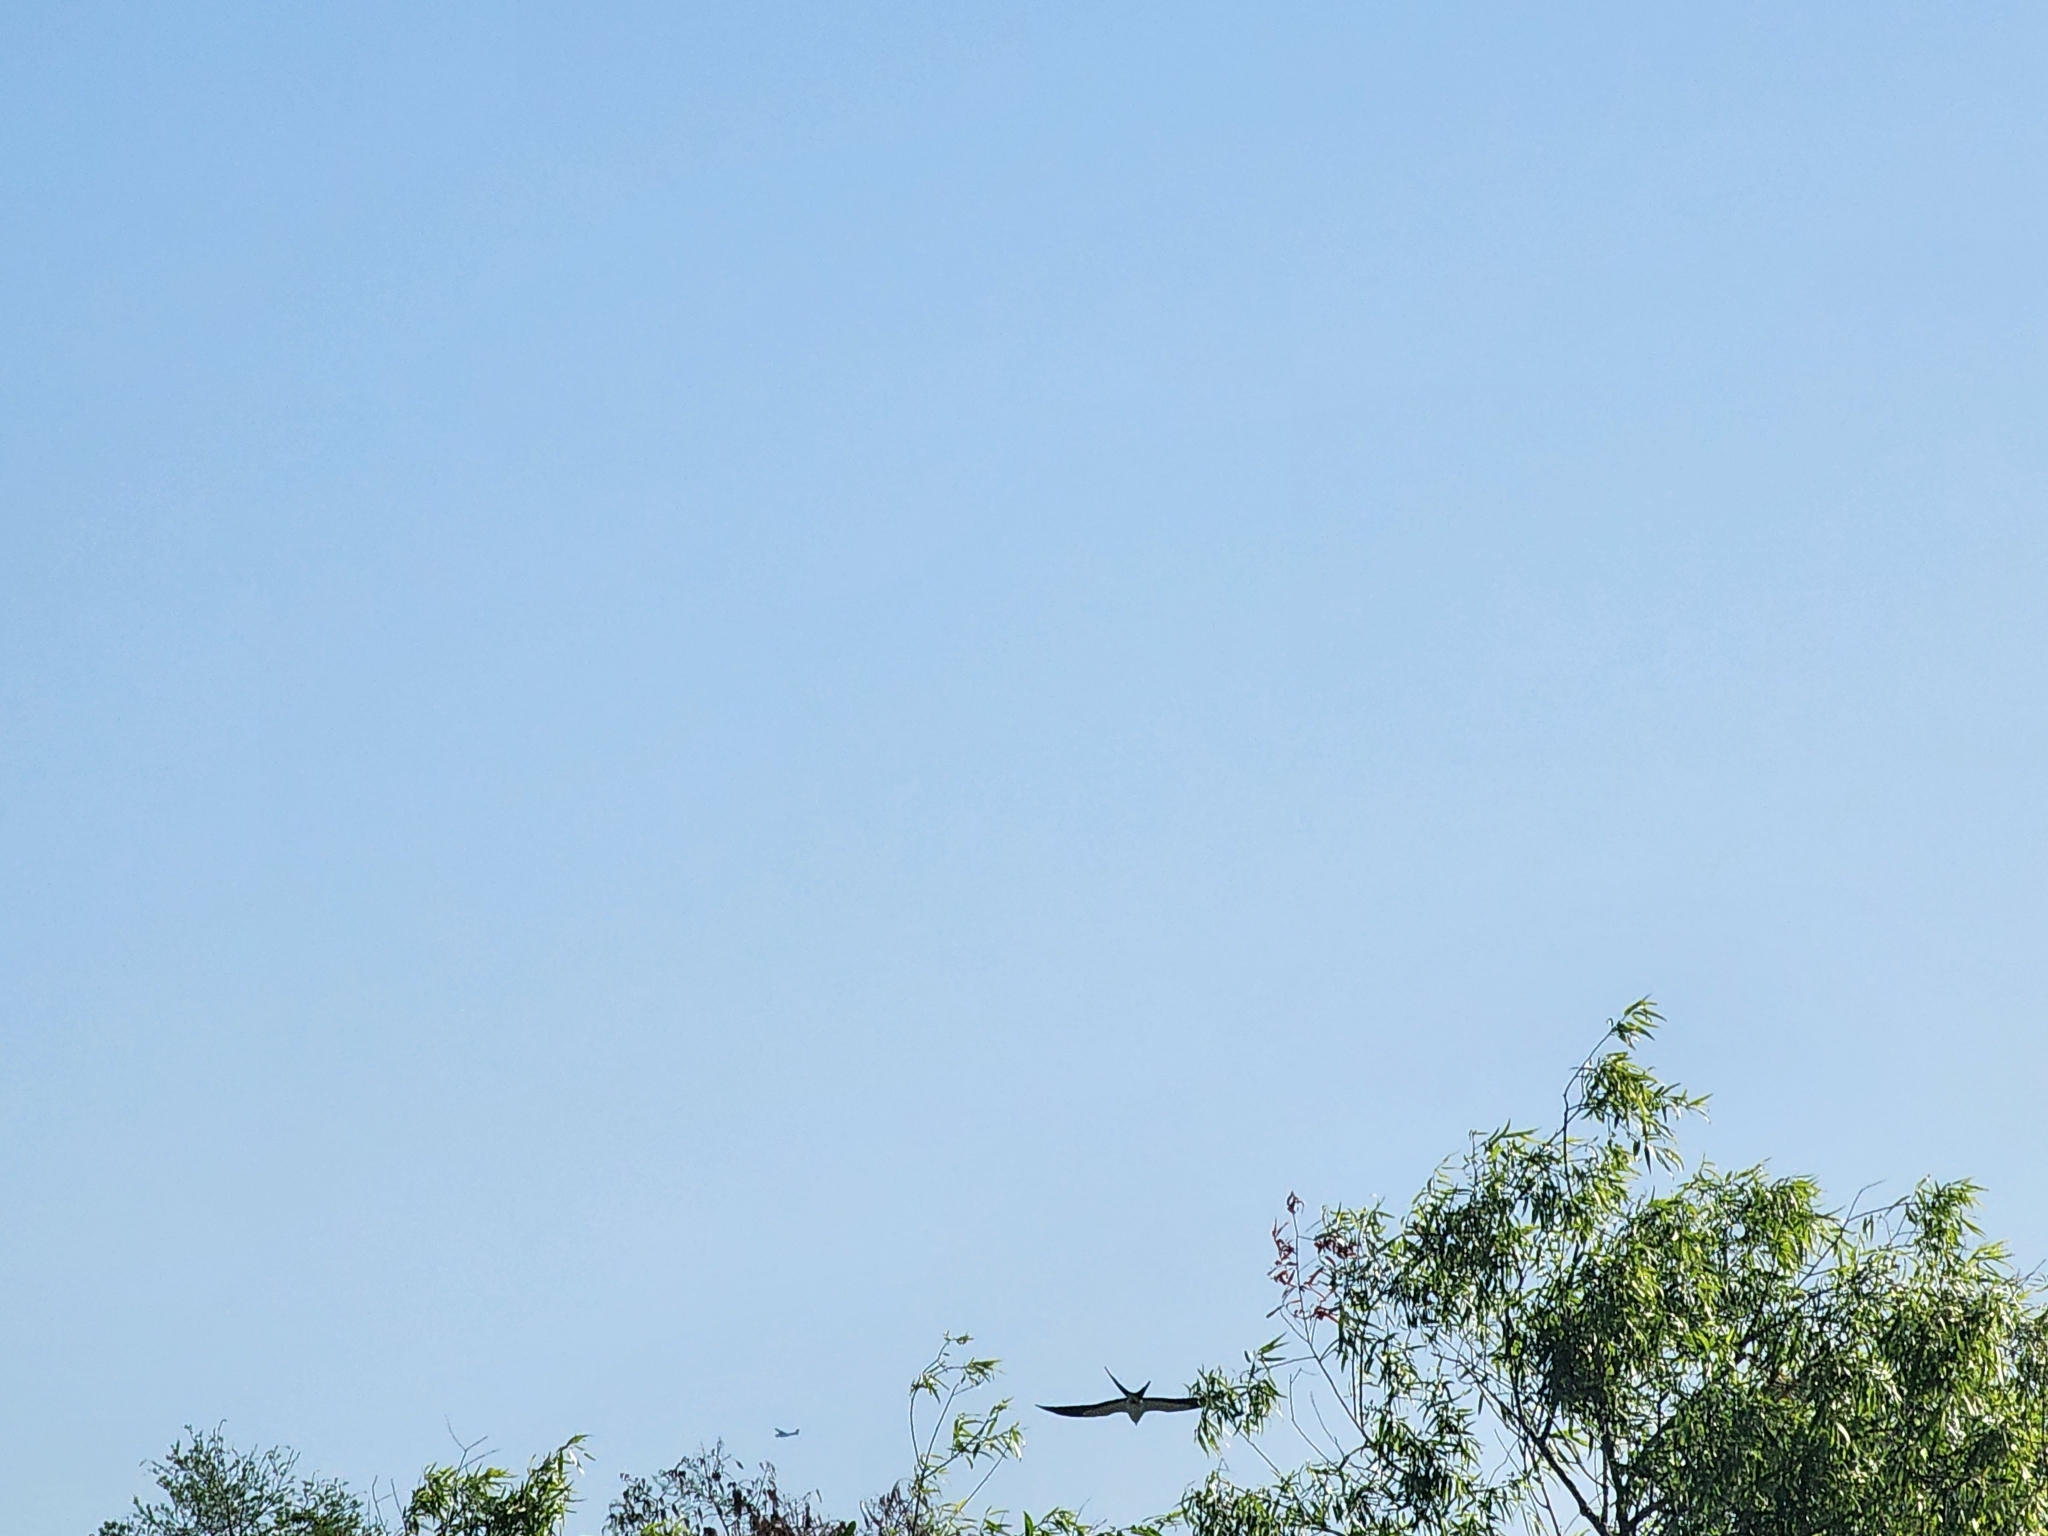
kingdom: Animalia
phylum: Chordata
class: Aves
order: Accipitriformes
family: Accipitridae
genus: Elanoides
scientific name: Elanoides forficatus
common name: Swallow-tailed kite
